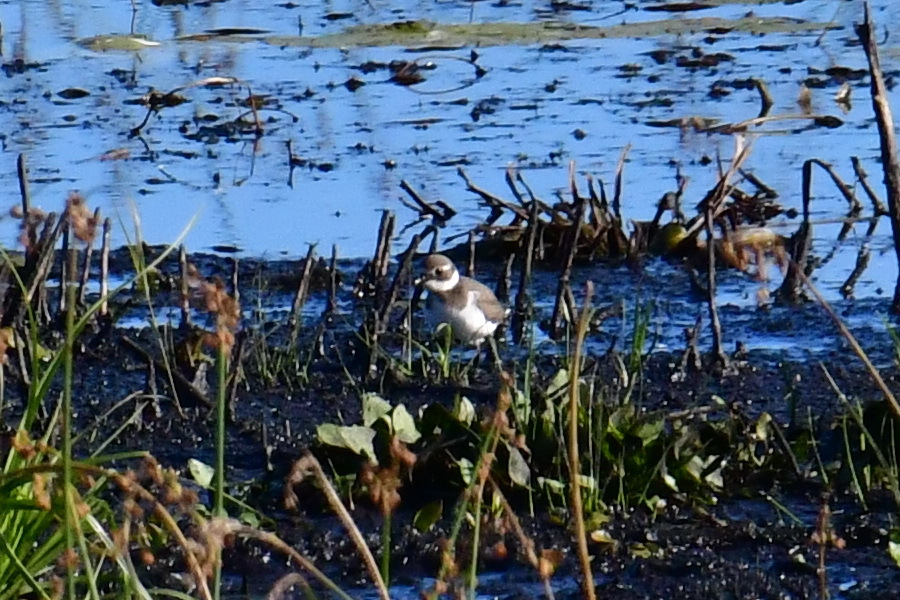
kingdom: Animalia
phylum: Chordata
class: Aves
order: Charadriiformes
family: Charadriidae
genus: Charadrius
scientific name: Charadrius hiaticula
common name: Common ringed plover
